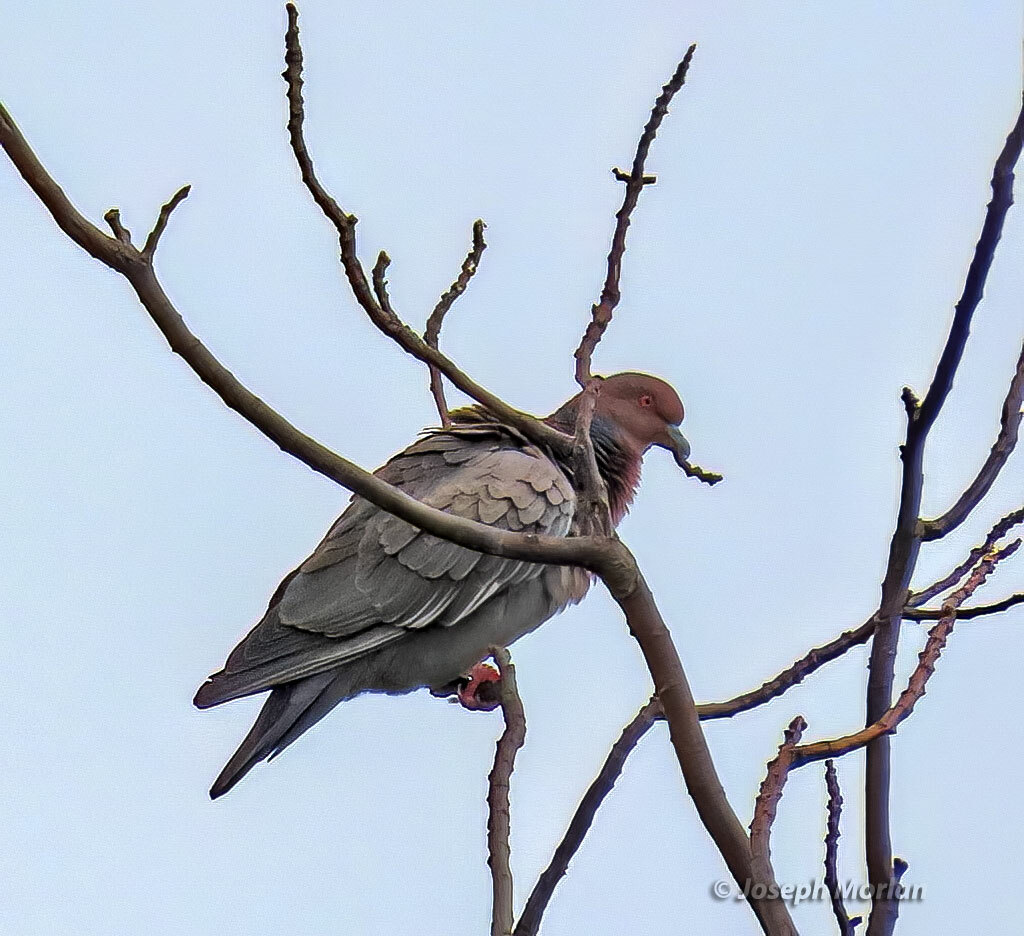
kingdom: Animalia
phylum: Chordata
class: Aves
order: Columbiformes
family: Columbidae
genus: Patagioenas
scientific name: Patagioenas picazuro
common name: Picazuro pigeon
